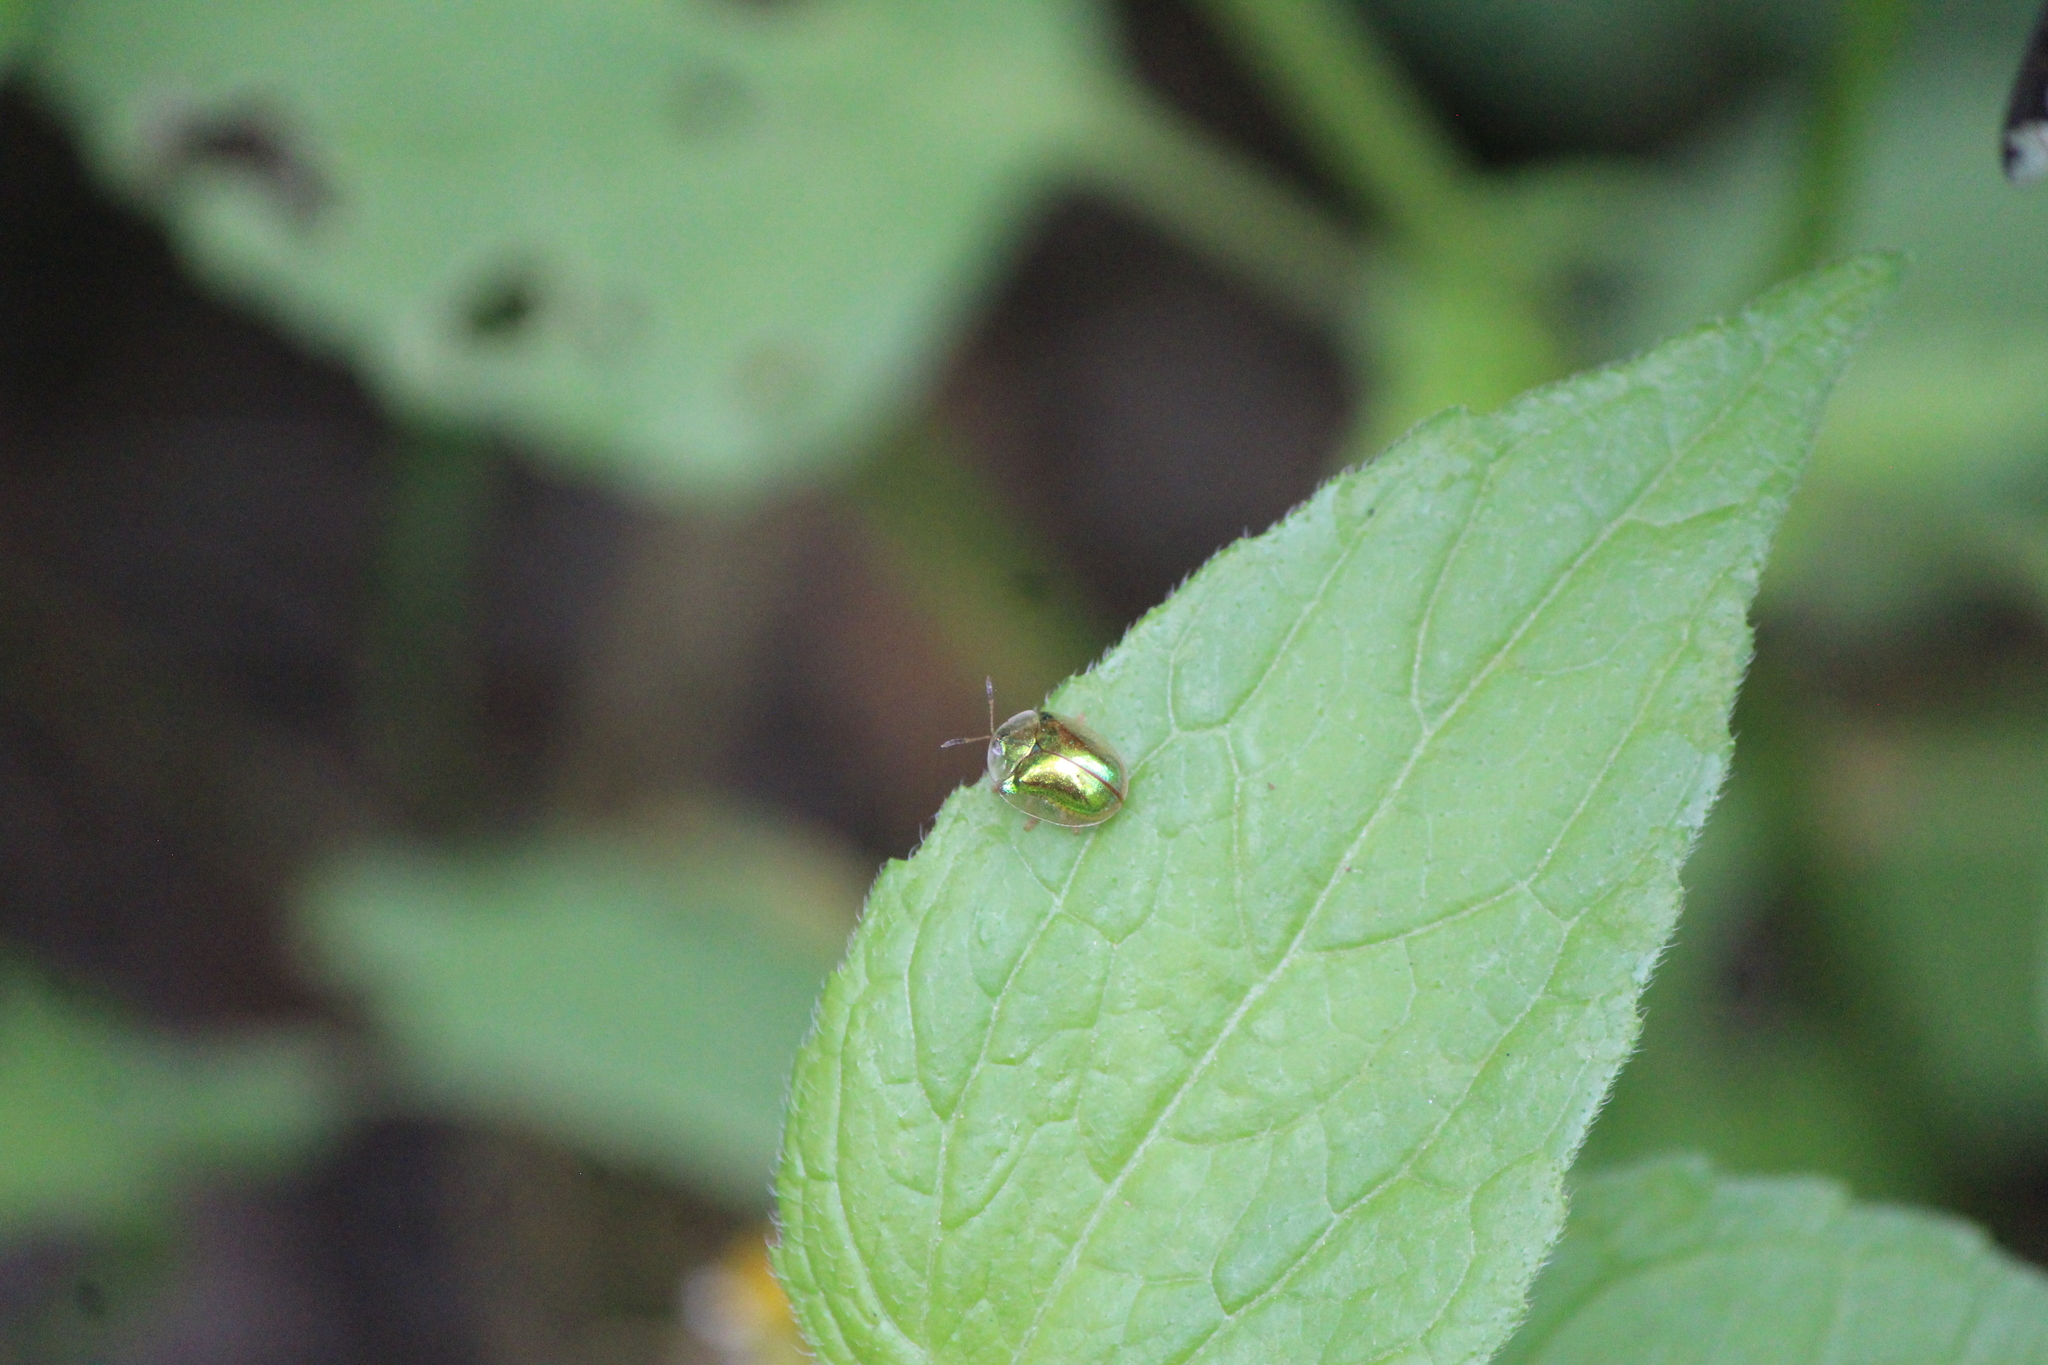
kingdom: Animalia
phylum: Arthropoda
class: Insecta
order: Coleoptera
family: Chrysomelidae
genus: Charidotella
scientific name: Charidotella succinea
